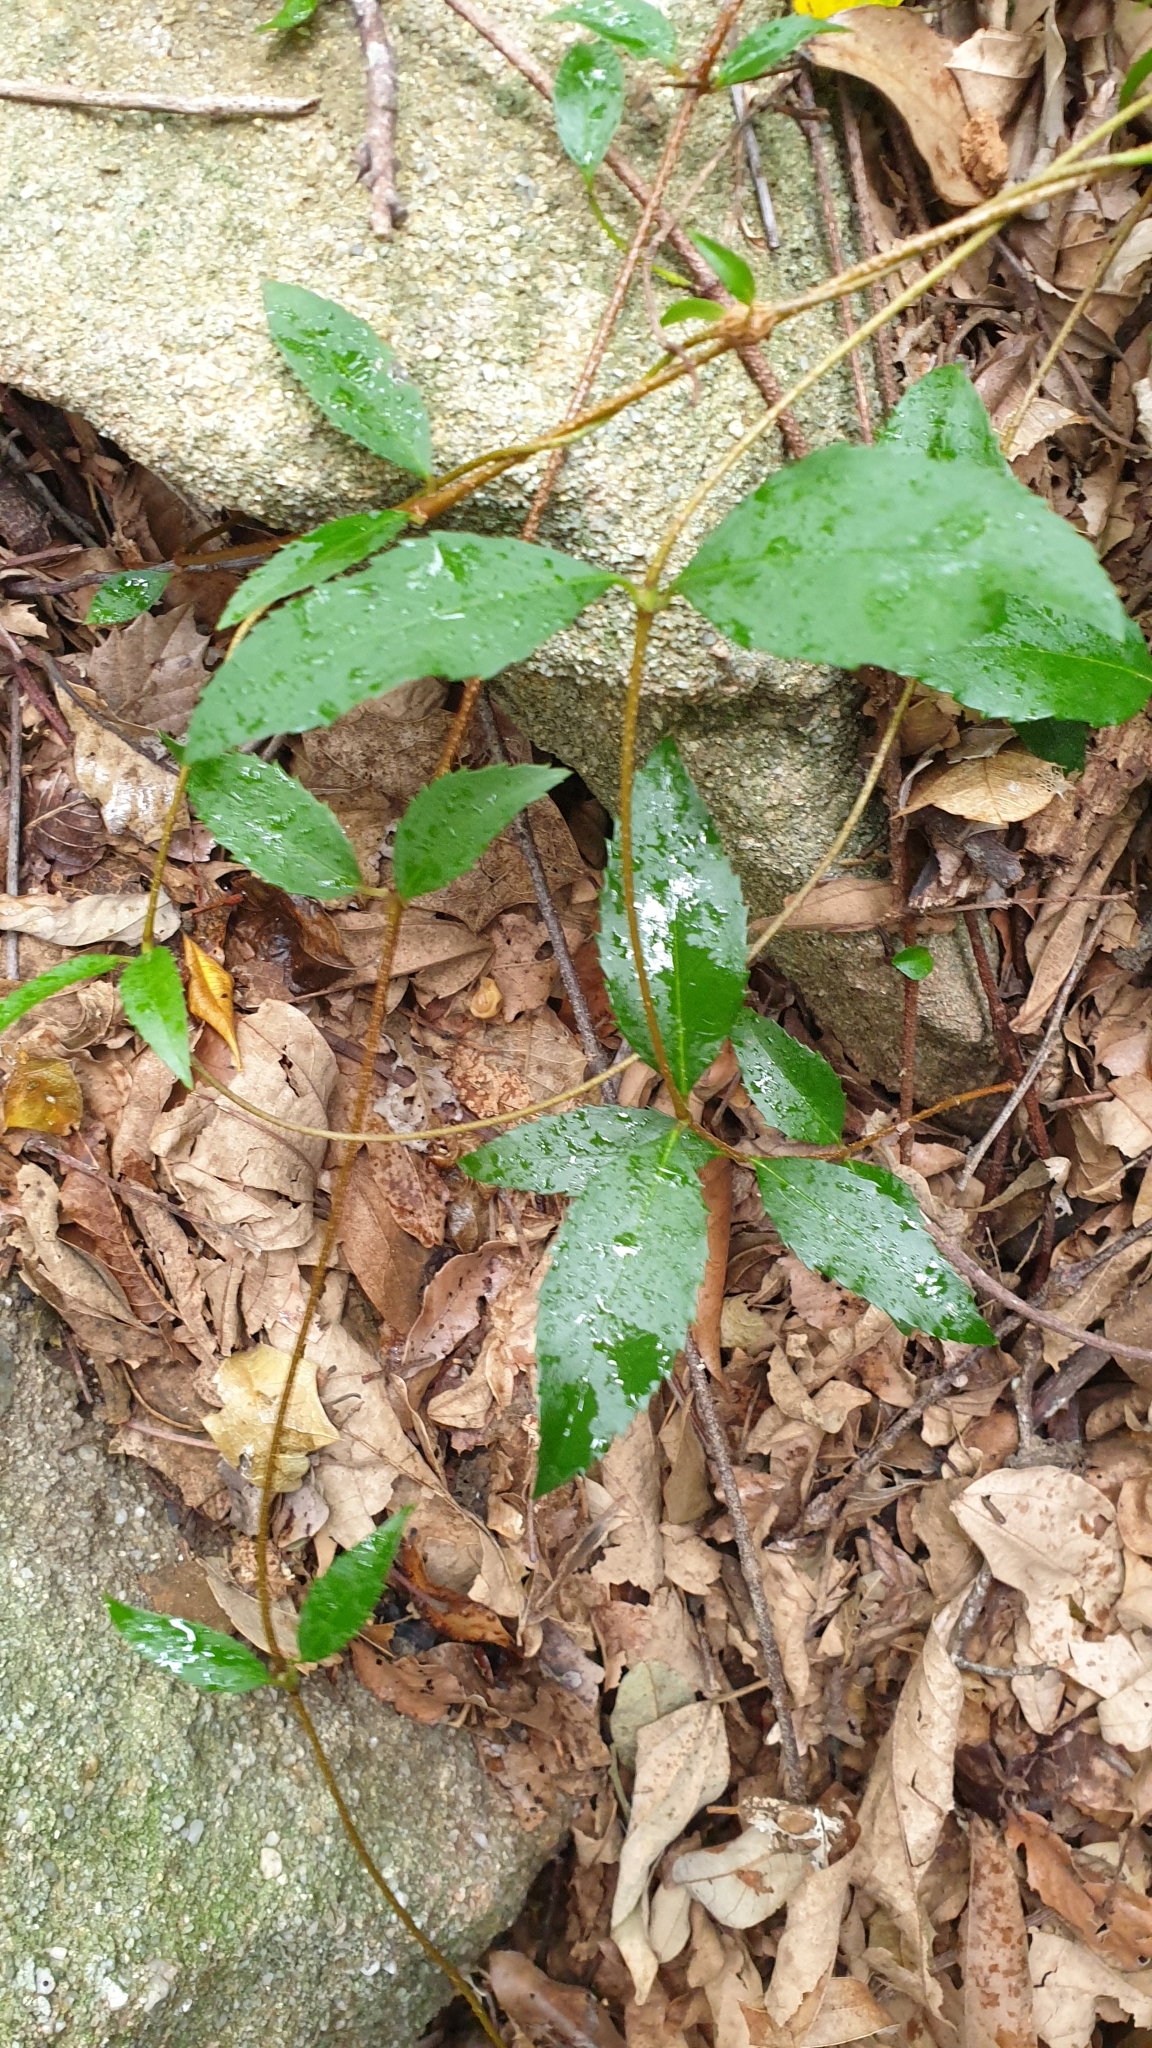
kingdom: Plantae
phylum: Tracheophyta
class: Magnoliopsida
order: Saxifragales
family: Aphanopetalaceae
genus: Aphanopetalum
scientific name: Aphanopetalum resinosum
